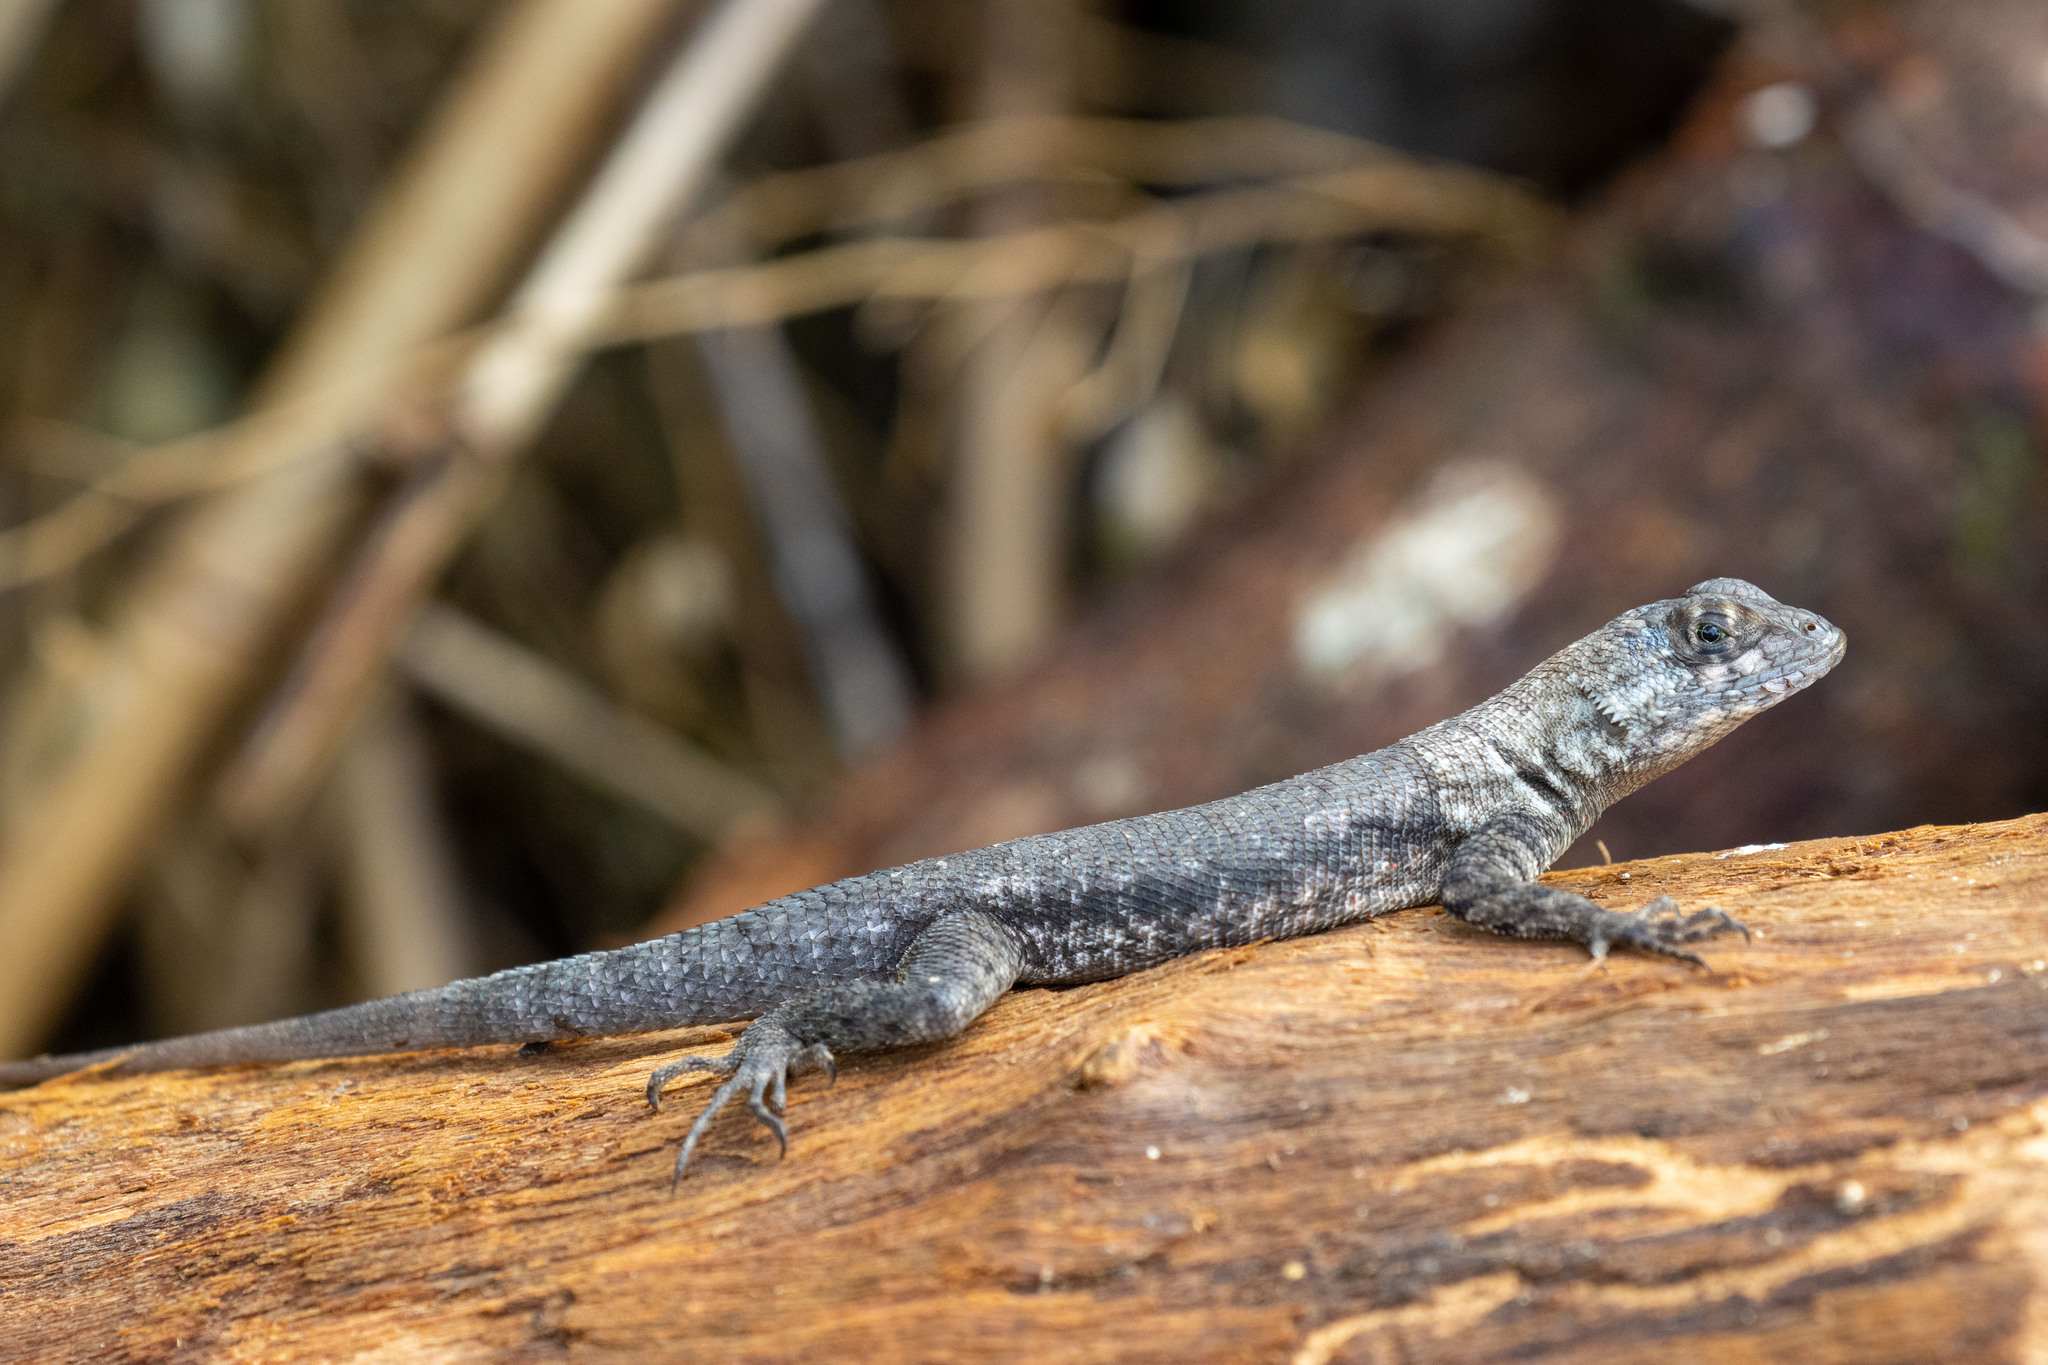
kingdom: Animalia
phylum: Chordata
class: Squamata
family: Tropiduridae
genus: Tropidurus
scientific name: Tropidurus hispidus
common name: Peters' lava lizard
